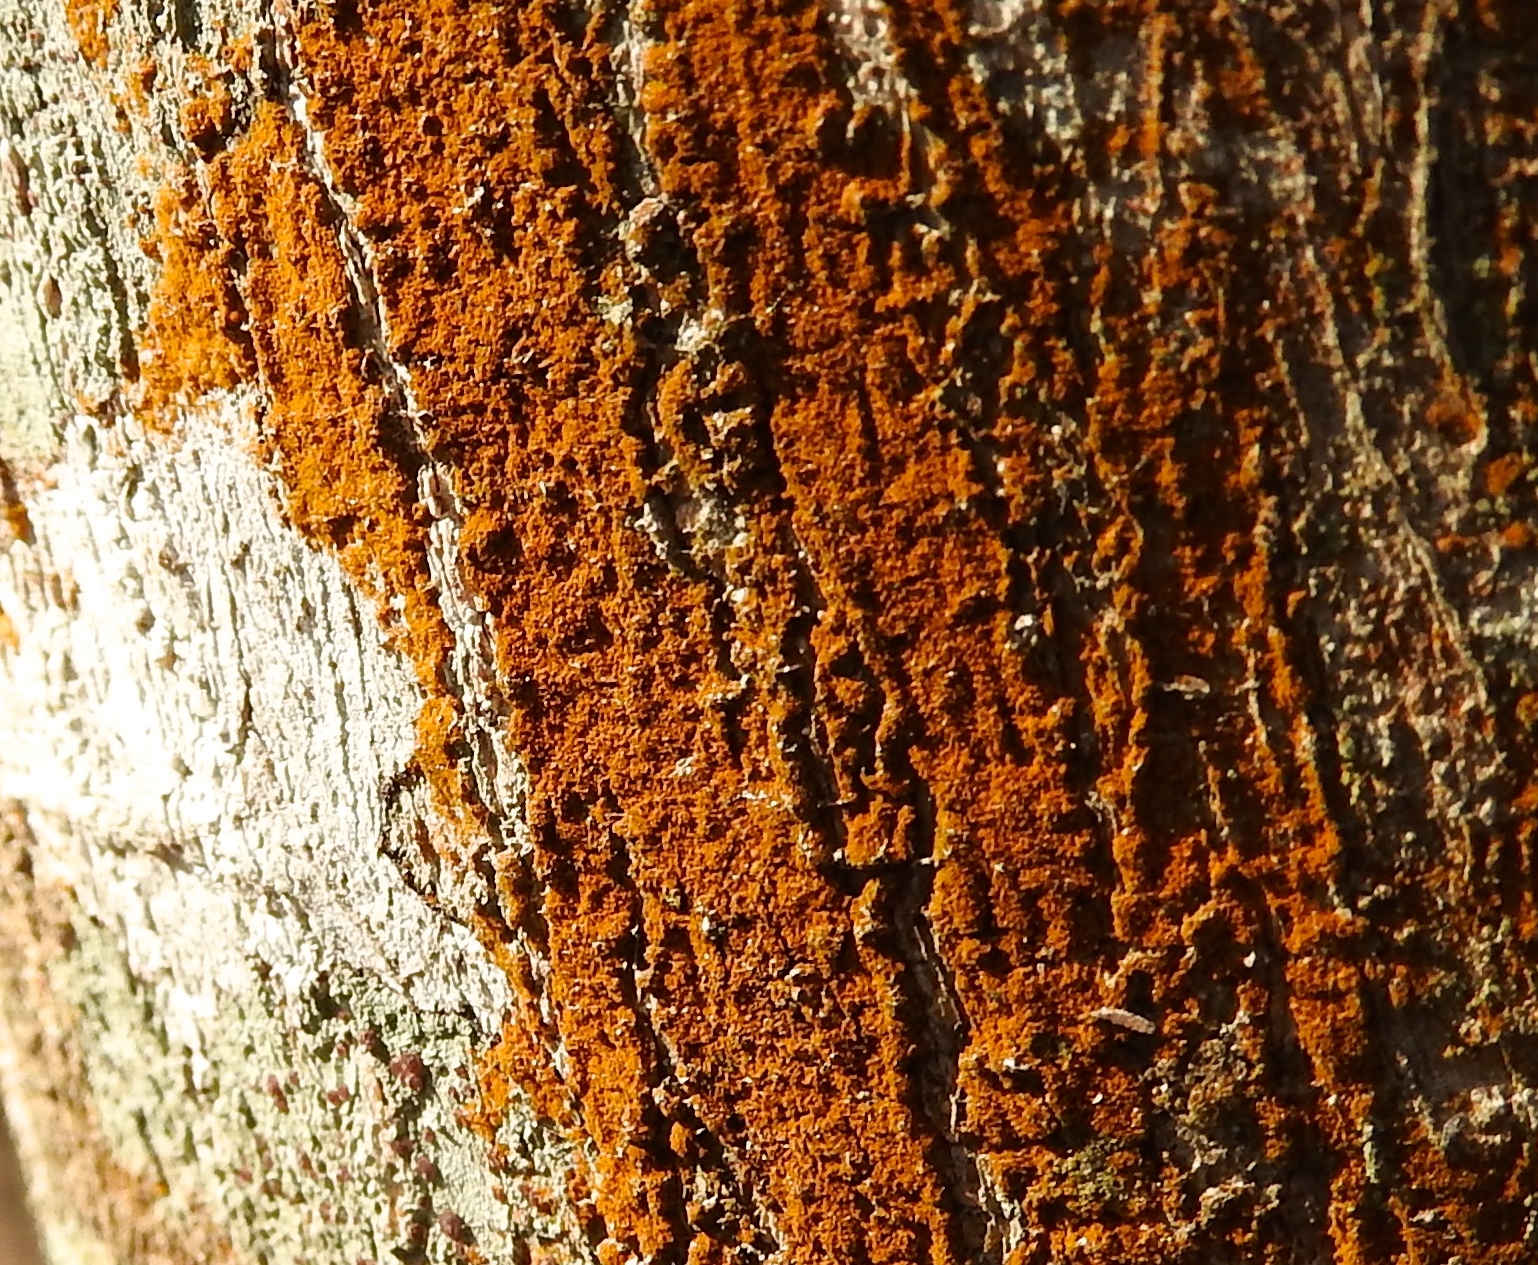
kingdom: Plantae
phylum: Chlorophyta
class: Ulvophyceae
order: Trentepohliales
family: Trentepohliaceae
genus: Trentepohlia
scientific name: Trentepohlia
